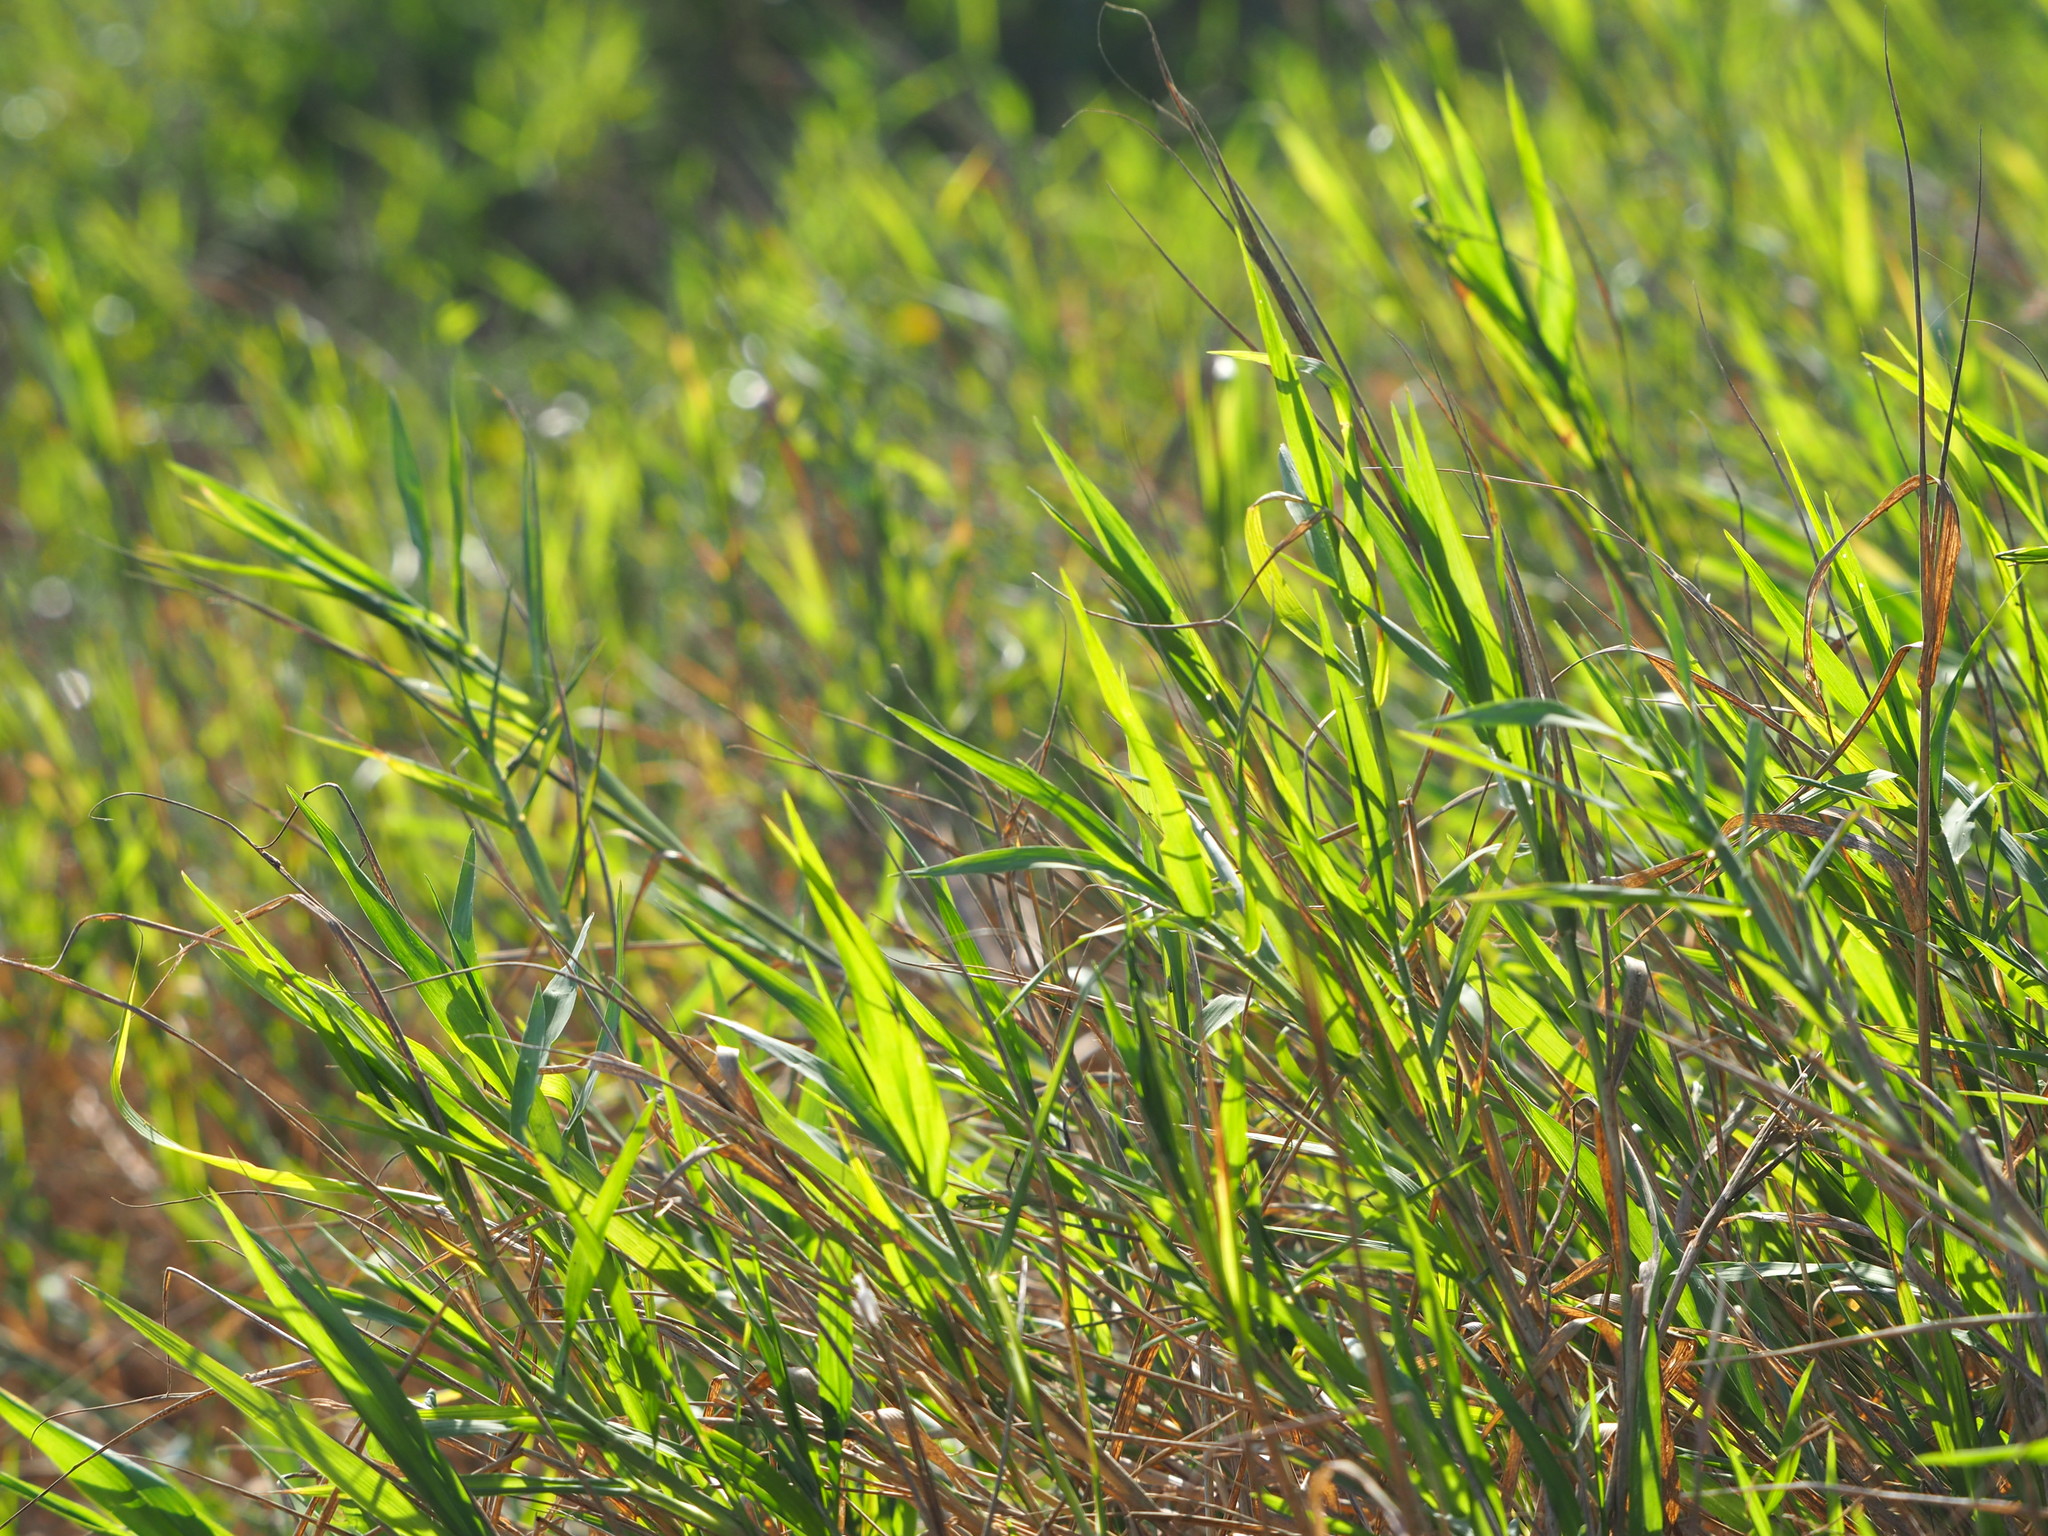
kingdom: Plantae
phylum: Tracheophyta
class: Liliopsida
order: Poales
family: Poaceae
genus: Cynodon
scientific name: Cynodon nlemfuensis
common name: African bermudagrass
